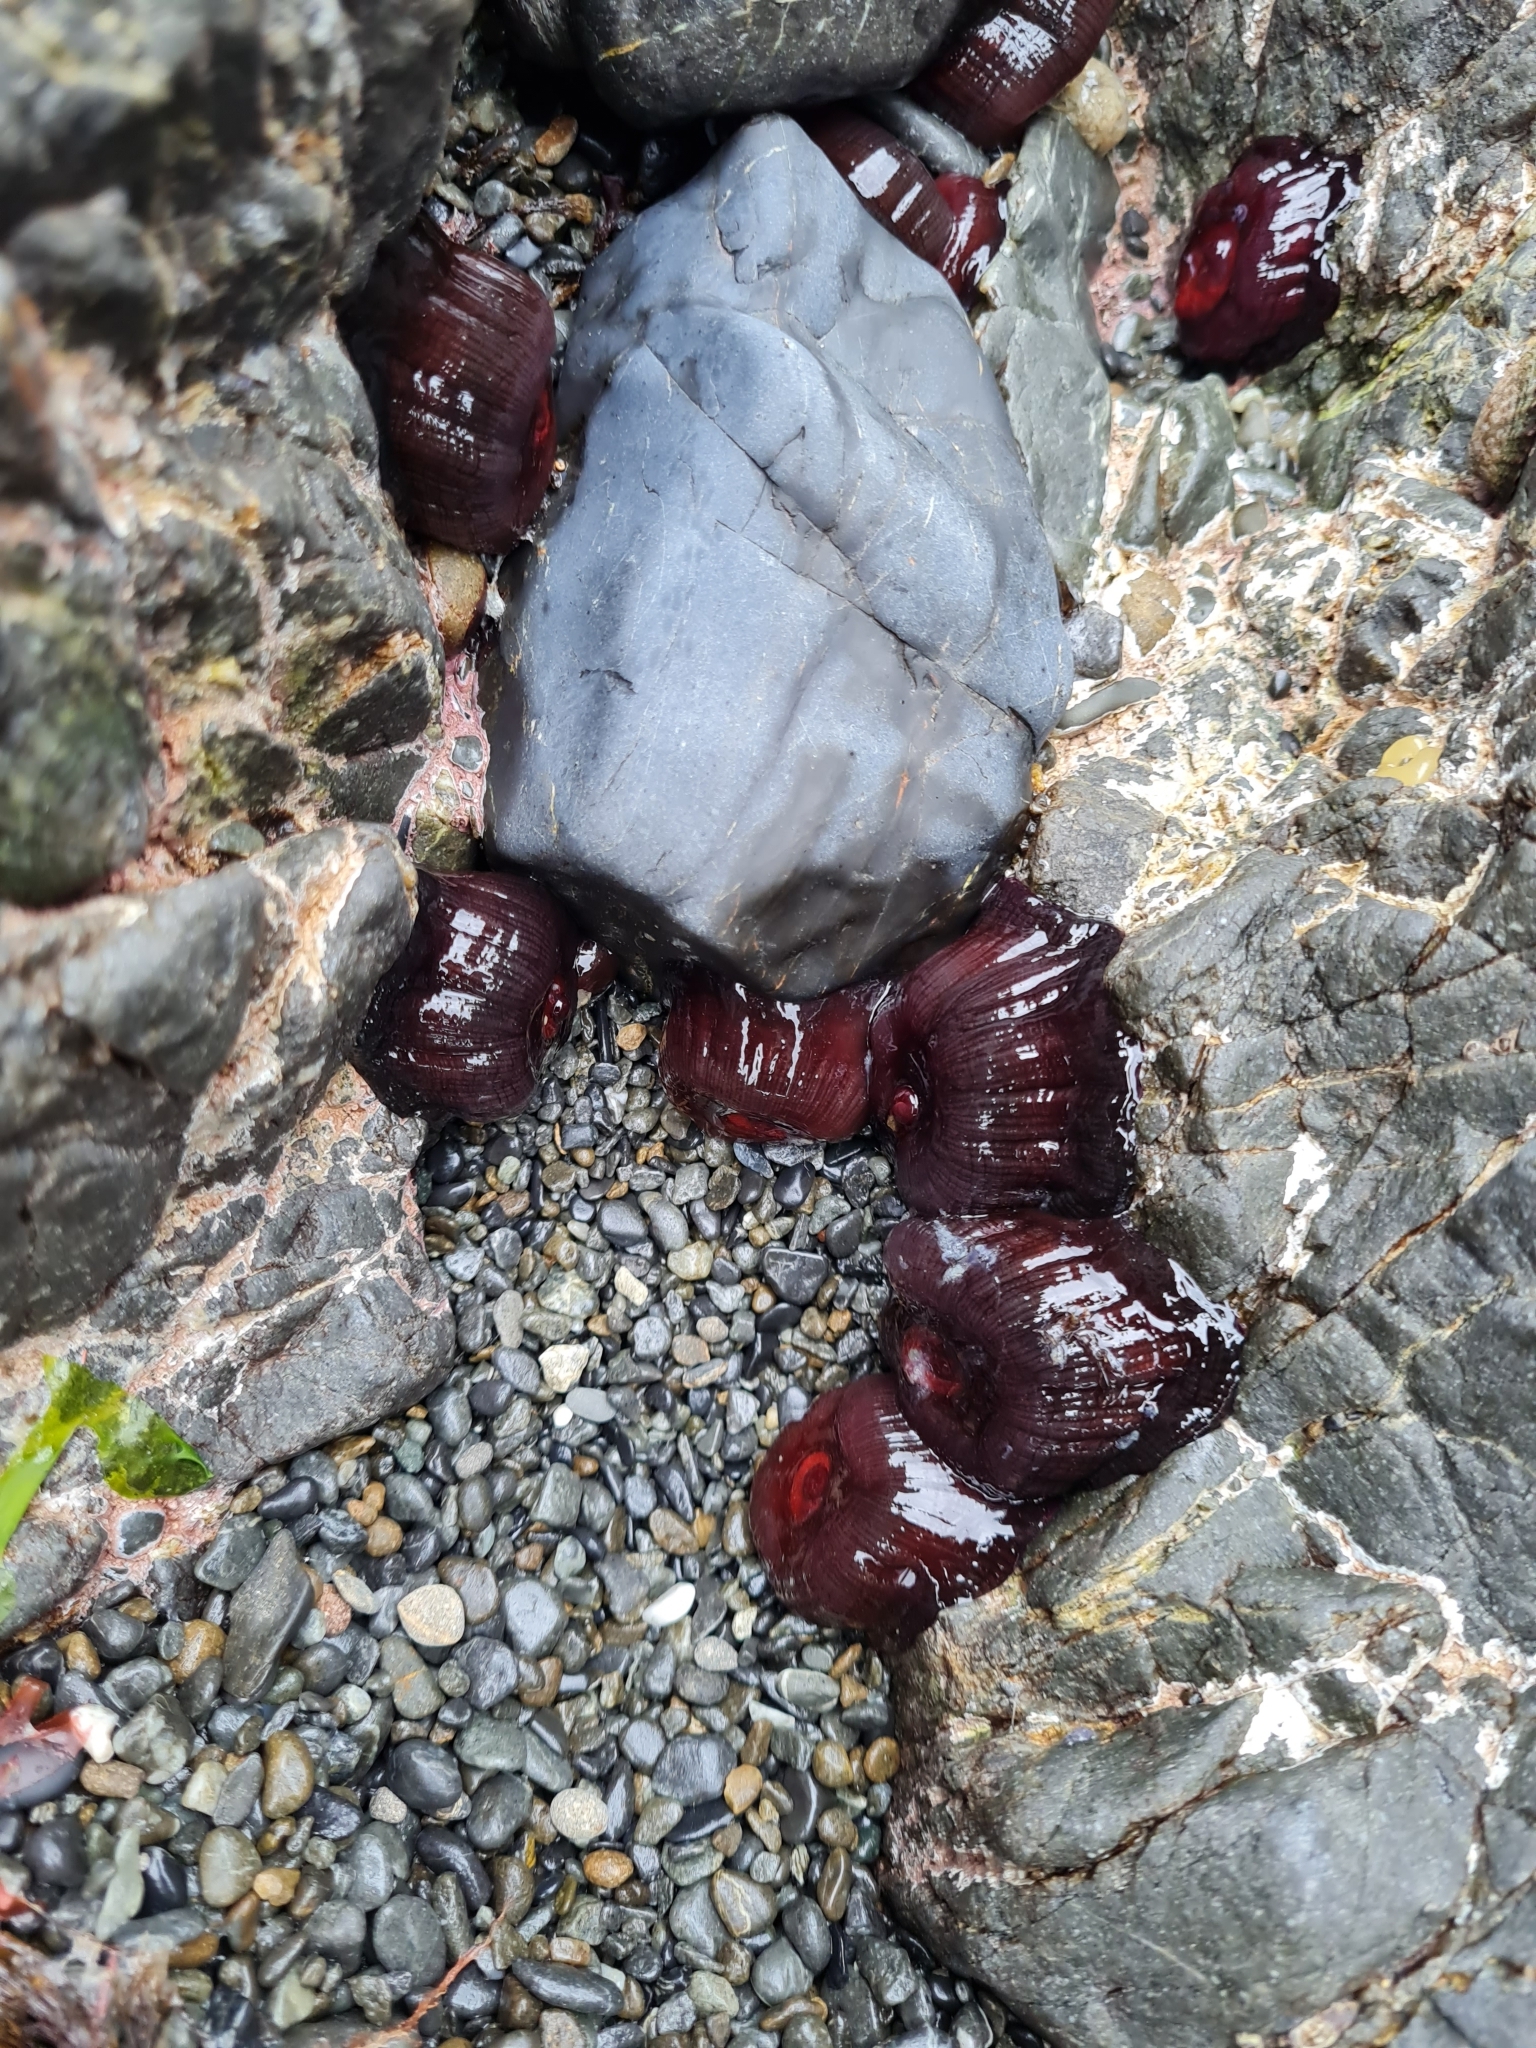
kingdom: Animalia
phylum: Cnidaria
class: Anthozoa
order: Actiniaria
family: Actiniidae
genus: Actinia
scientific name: Actinia tenebrosa
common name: Waratah anemone
